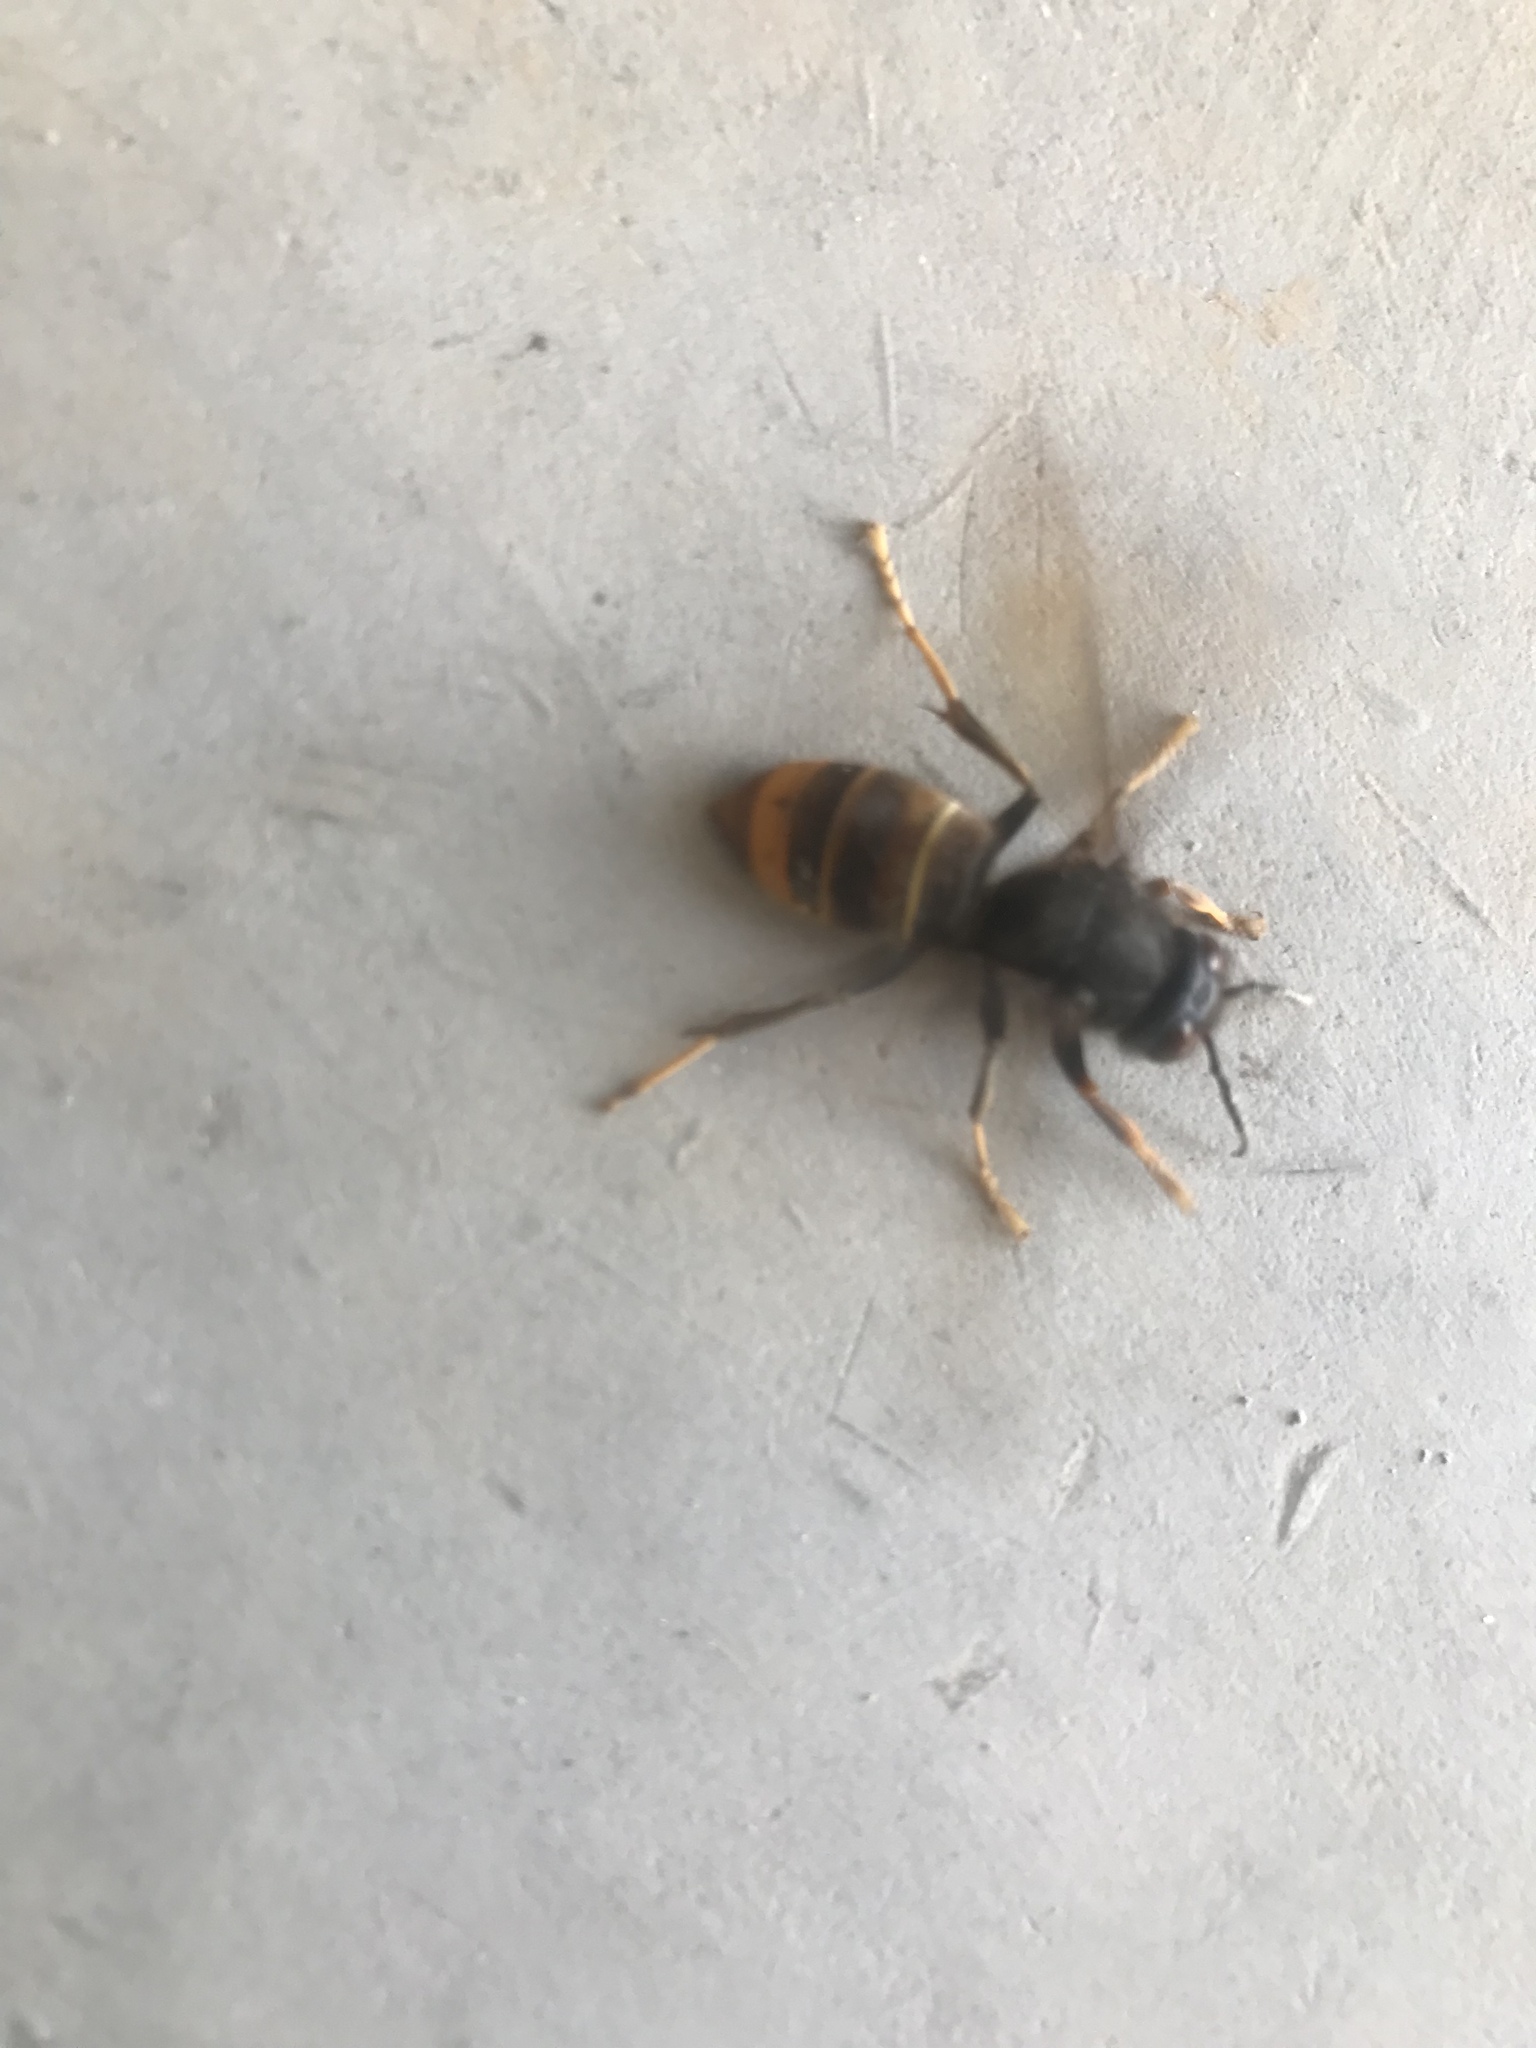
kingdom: Animalia
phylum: Arthropoda
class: Insecta
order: Hymenoptera
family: Vespidae
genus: Vespa
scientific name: Vespa velutina
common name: Asian hornet
